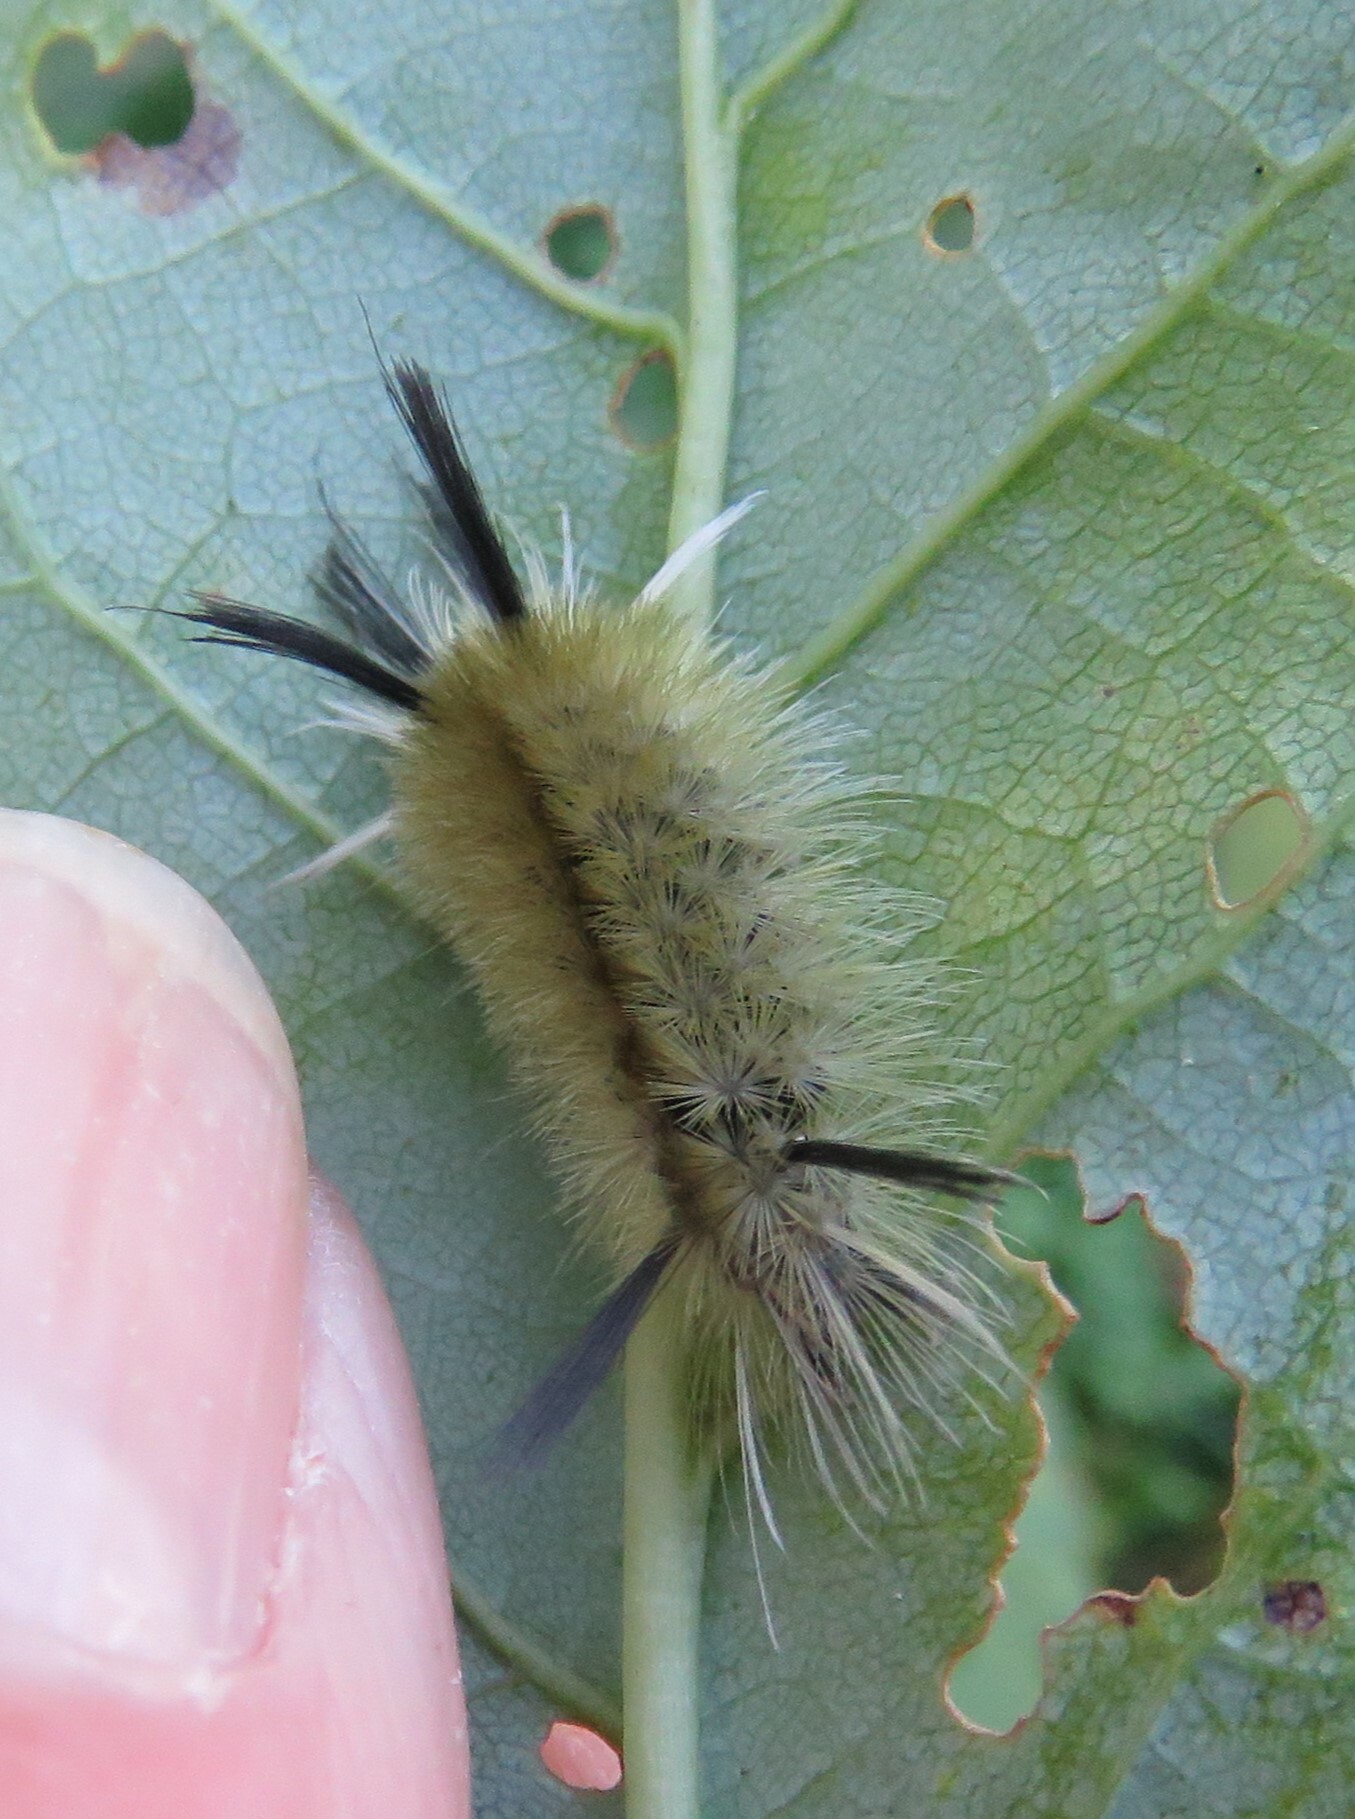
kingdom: Animalia
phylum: Arthropoda
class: Insecta
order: Lepidoptera
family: Erebidae
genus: Halysidota
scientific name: Halysidota tessellaris
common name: Banded tussock moth
